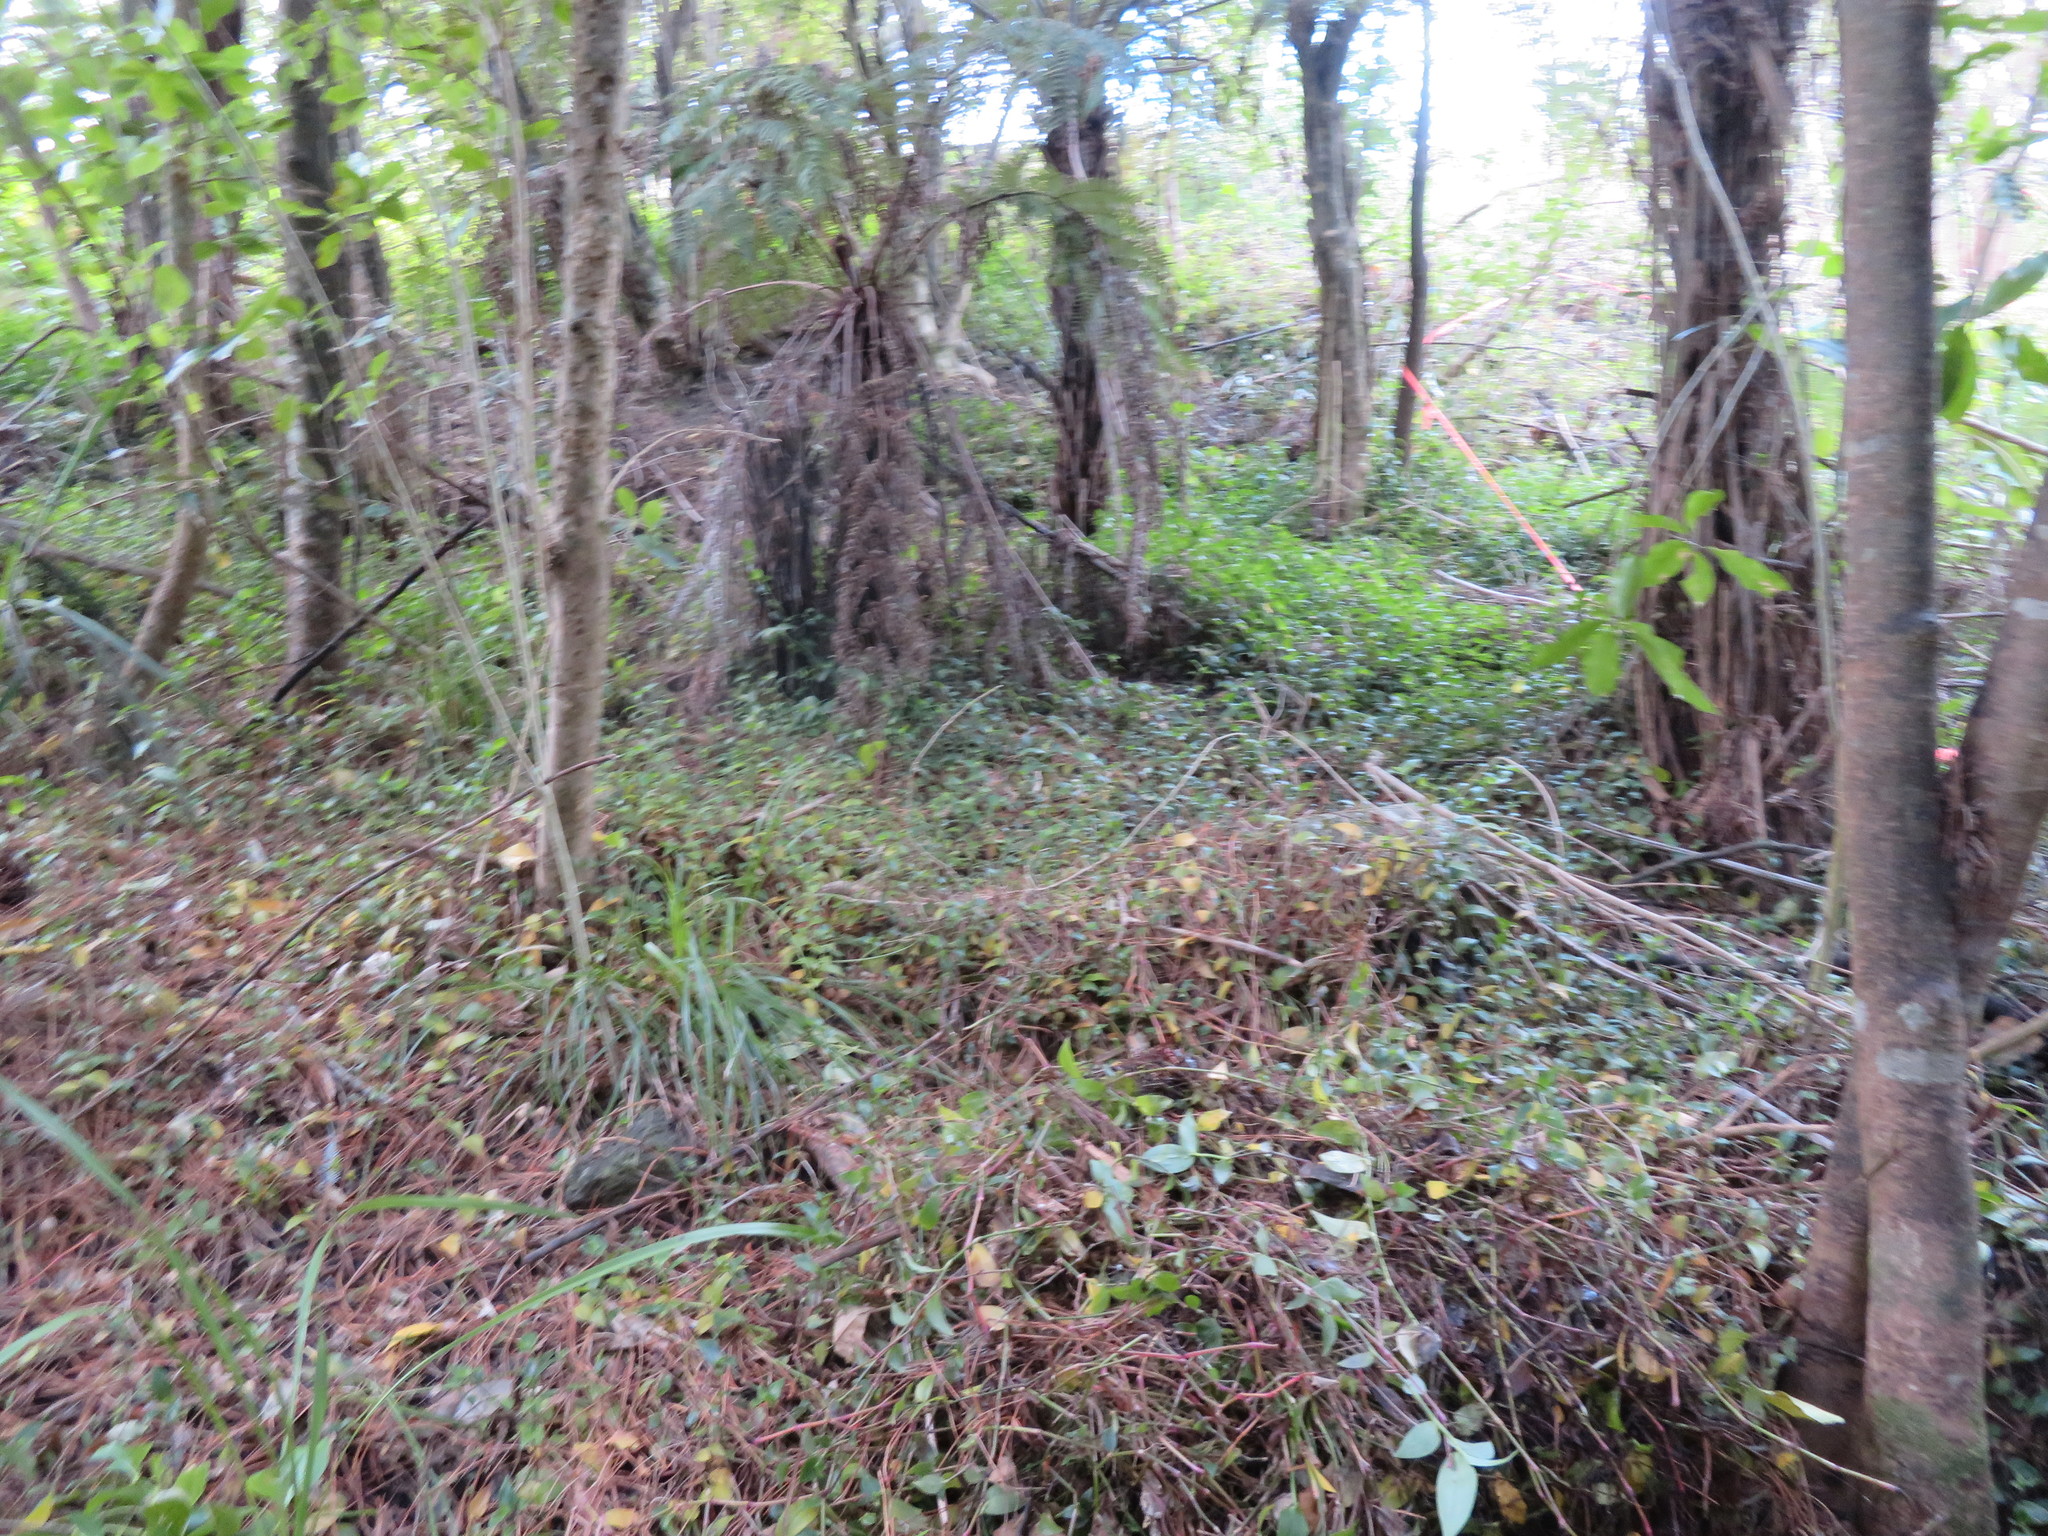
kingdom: Plantae
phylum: Tracheophyta
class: Liliopsida
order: Commelinales
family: Commelinaceae
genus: Tradescantia
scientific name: Tradescantia fluminensis
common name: Wandering-jew
